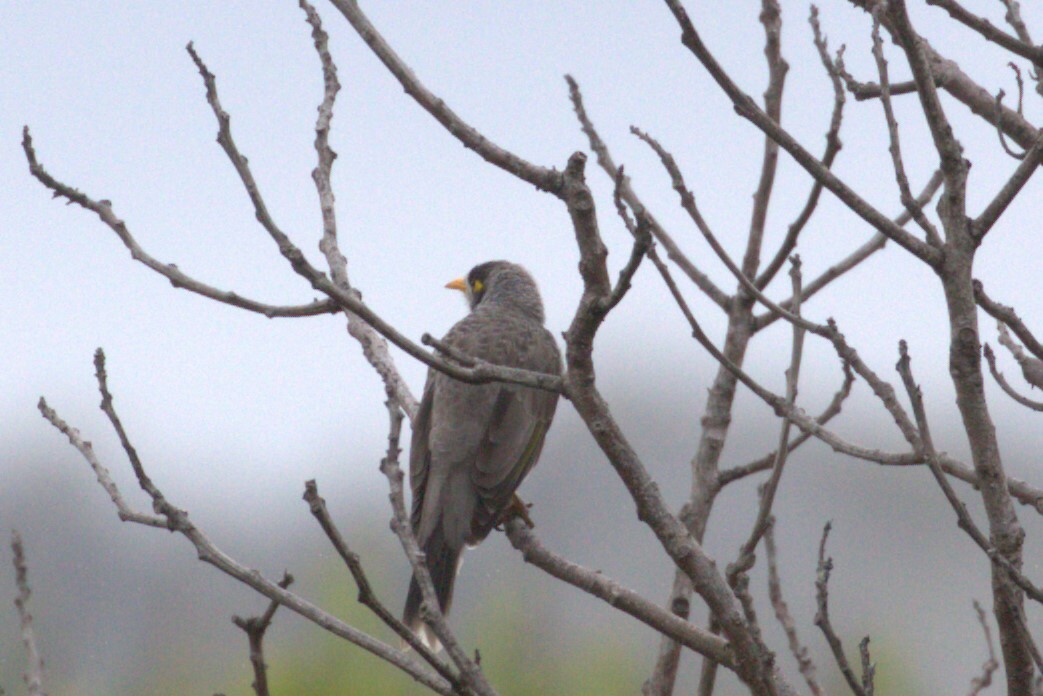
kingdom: Animalia
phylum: Chordata
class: Aves
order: Passeriformes
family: Meliphagidae
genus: Manorina
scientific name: Manorina melanocephala
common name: Noisy miner
